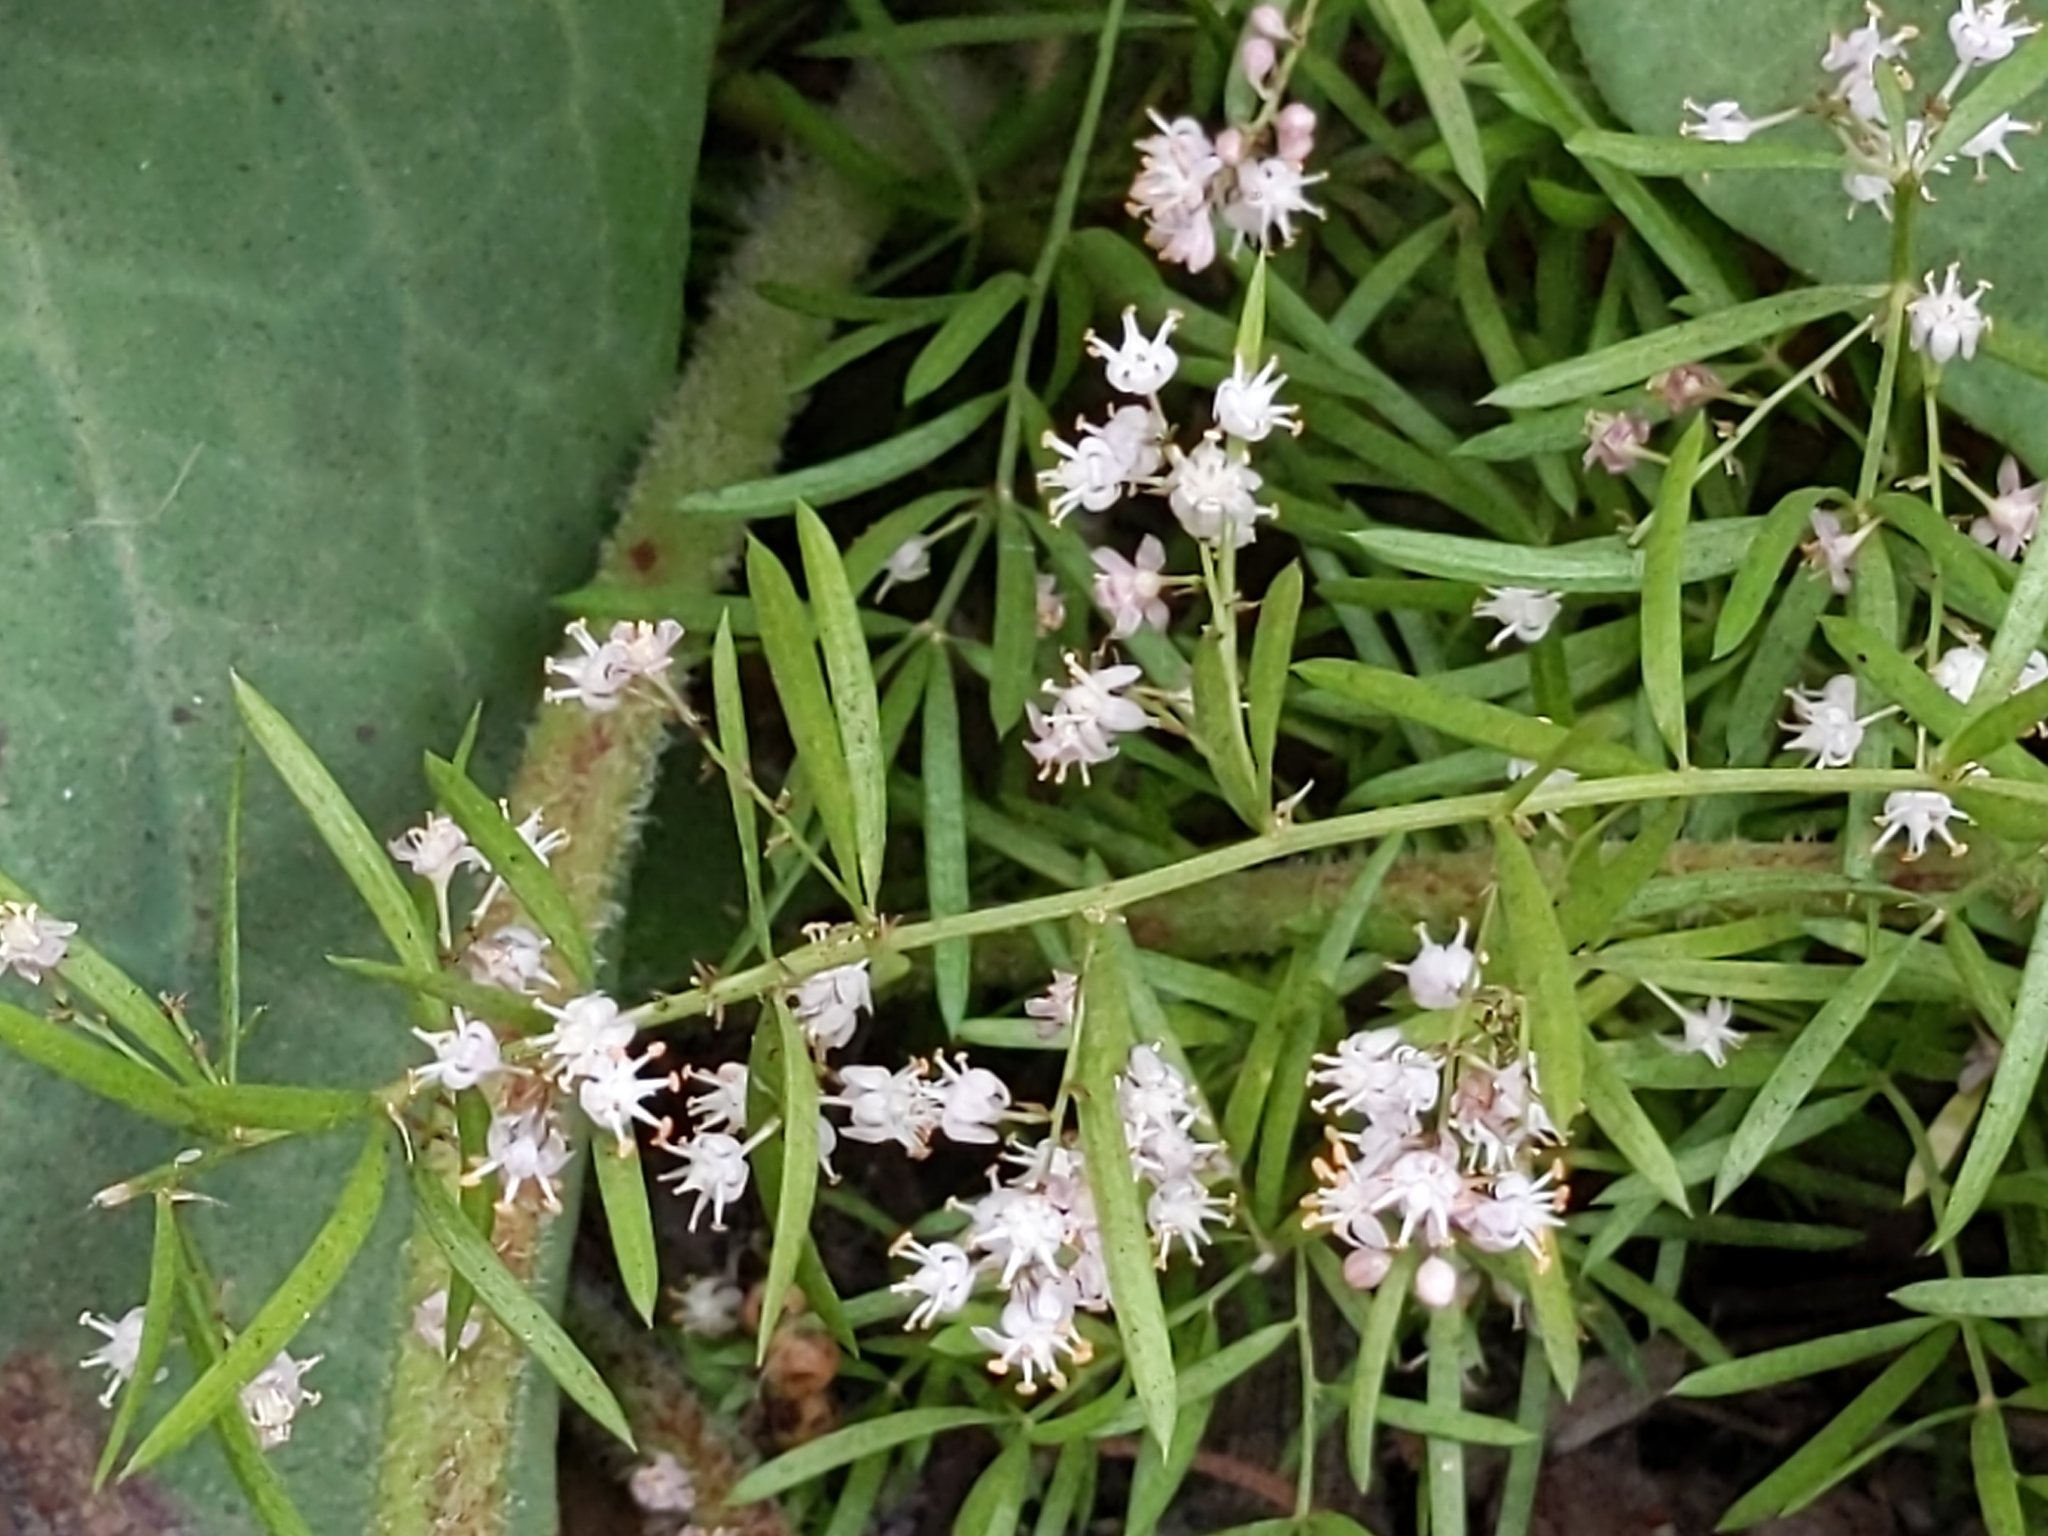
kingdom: Plantae
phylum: Tracheophyta
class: Liliopsida
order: Asparagales
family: Asparagaceae
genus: Asparagus
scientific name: Asparagus aethiopicus
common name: Sprenger's asparagus fern
